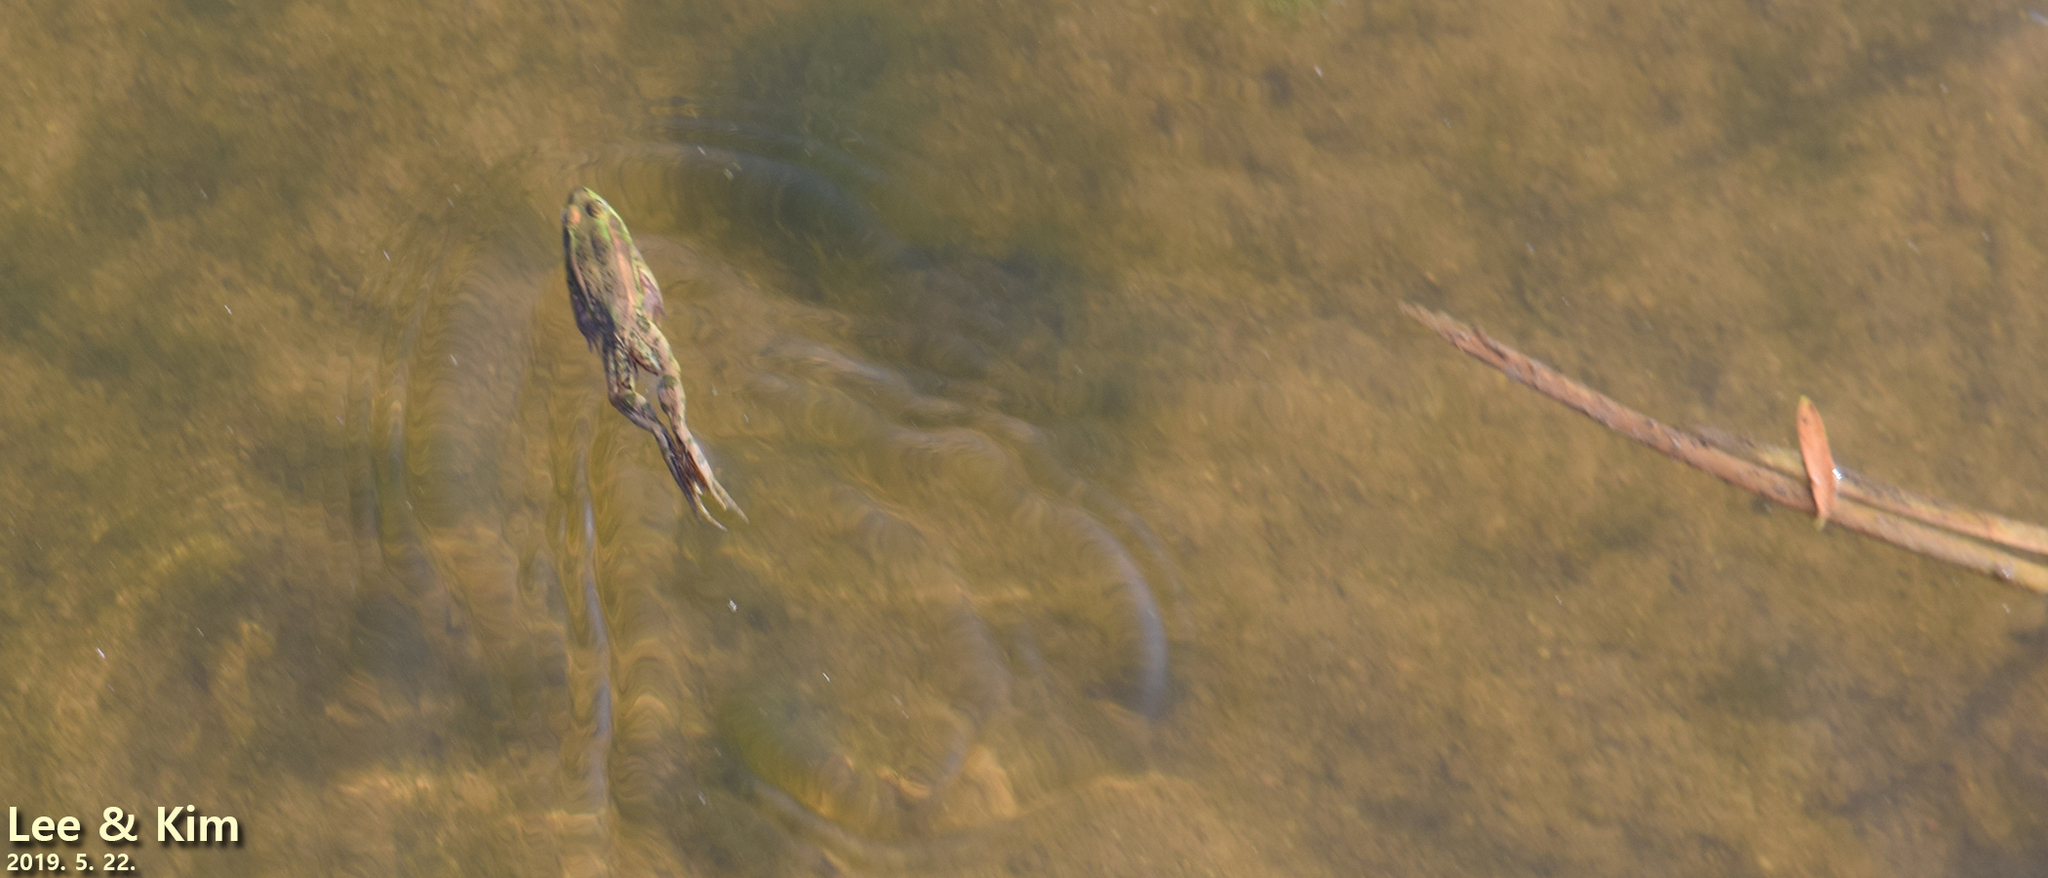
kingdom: Animalia
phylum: Chordata
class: Amphibia
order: Anura
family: Ranidae
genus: Pelophylax
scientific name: Pelophylax chosenicus
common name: Gold-spotted pond frog
